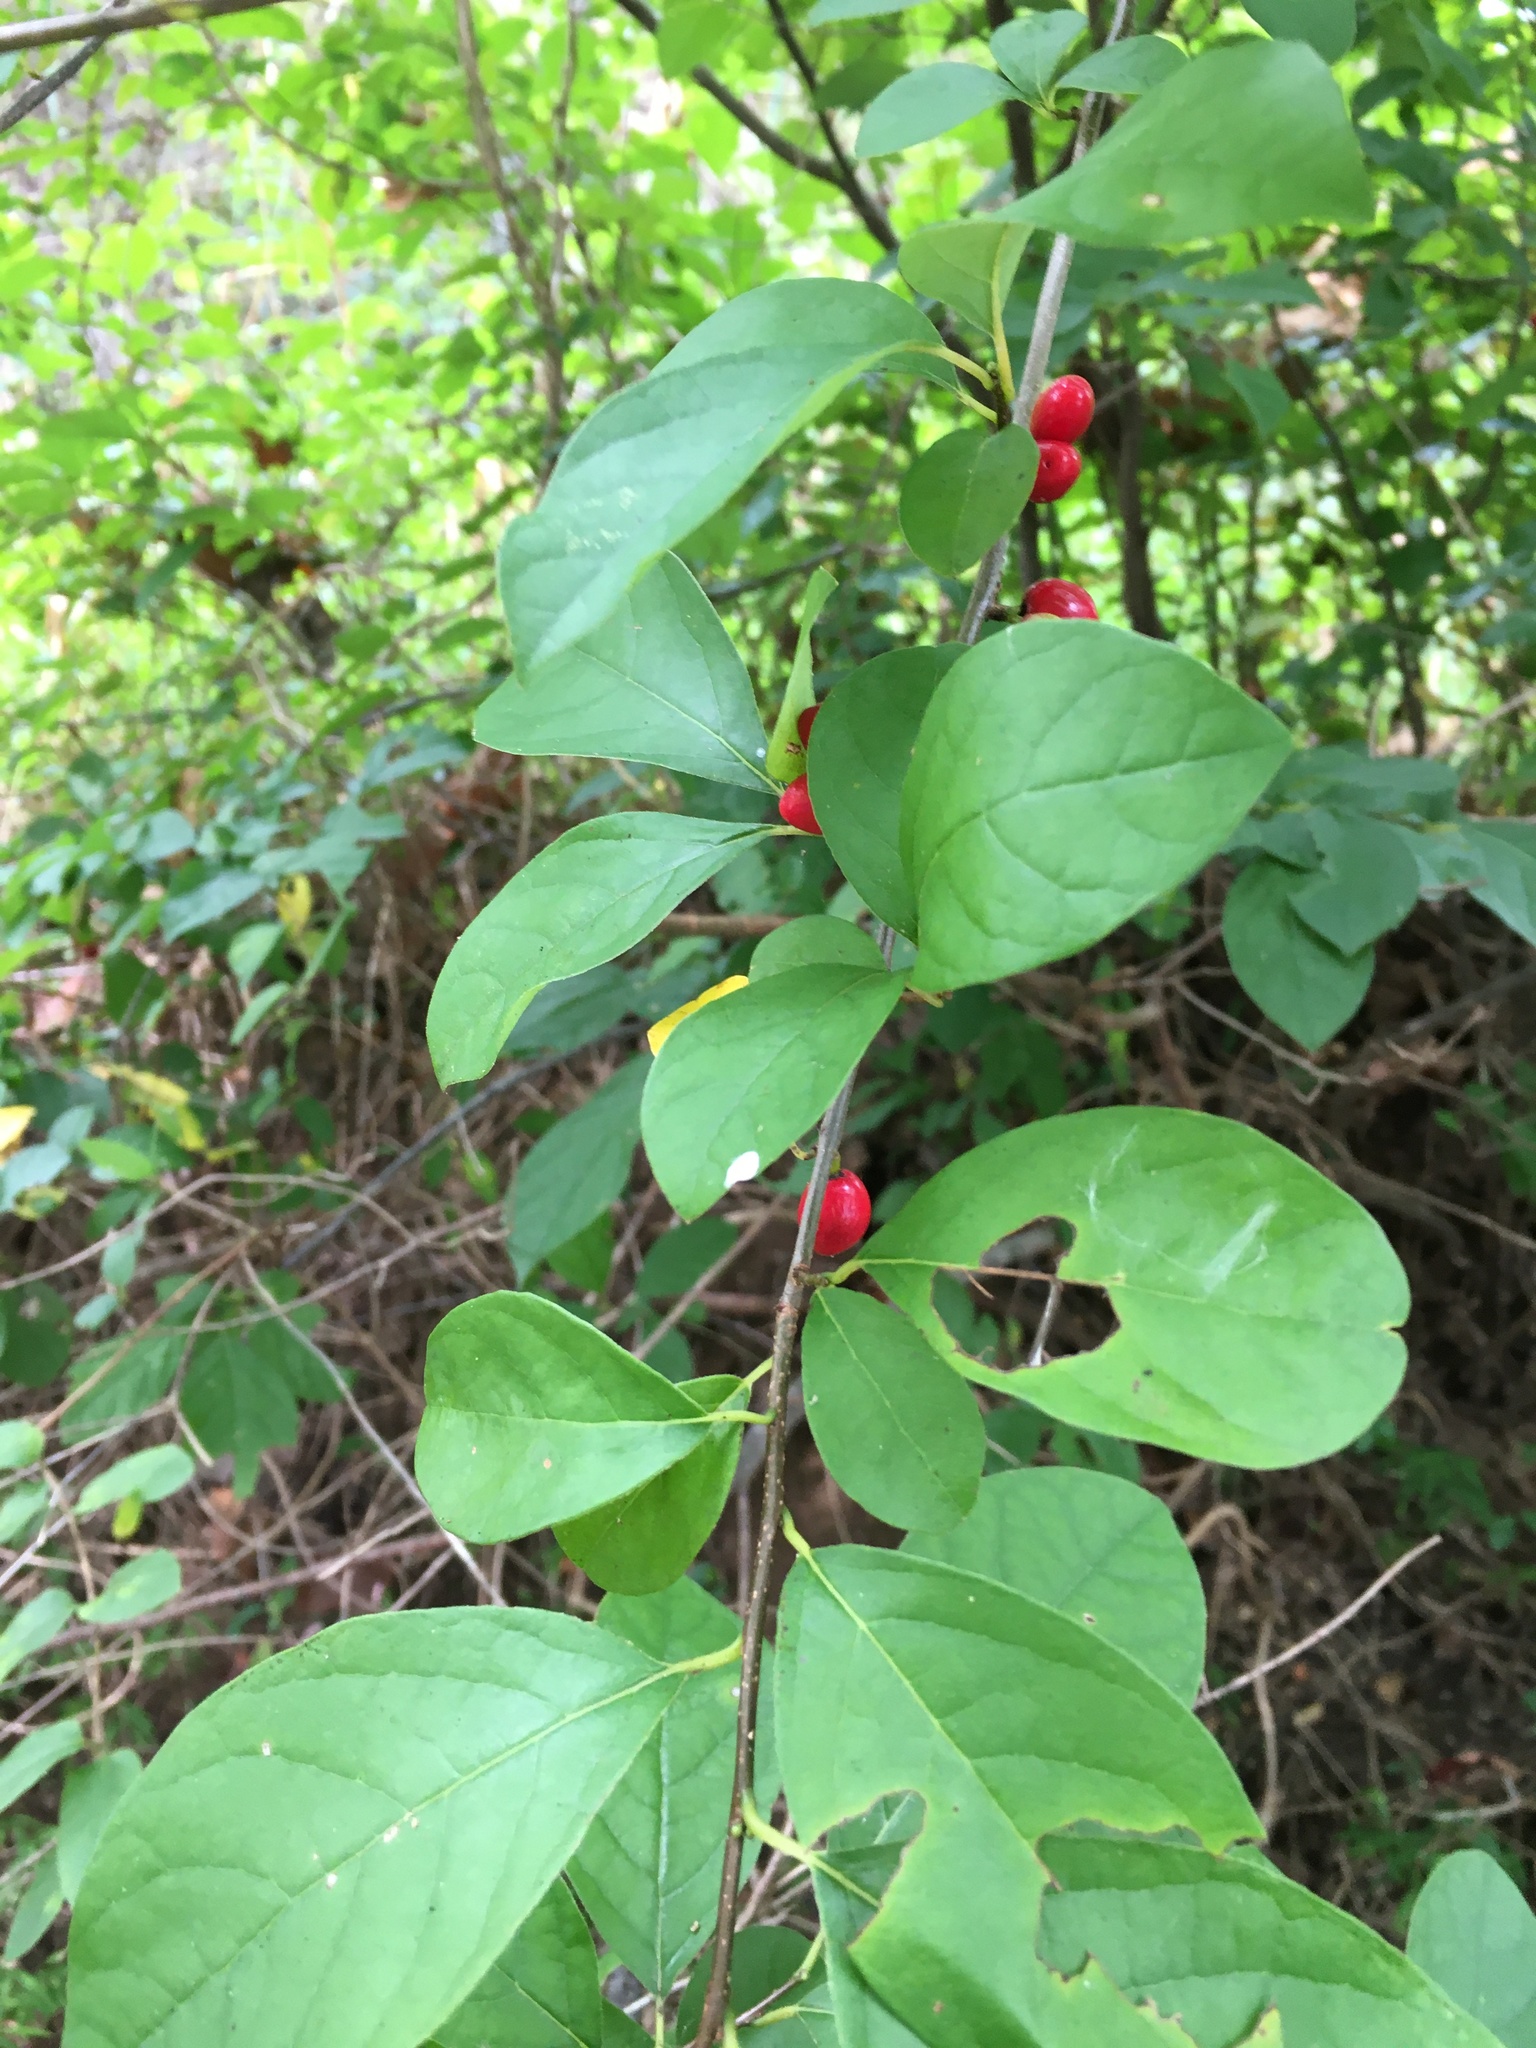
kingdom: Plantae
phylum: Tracheophyta
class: Magnoliopsida
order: Laurales
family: Lauraceae
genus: Lindera
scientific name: Lindera benzoin
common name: Spicebush
